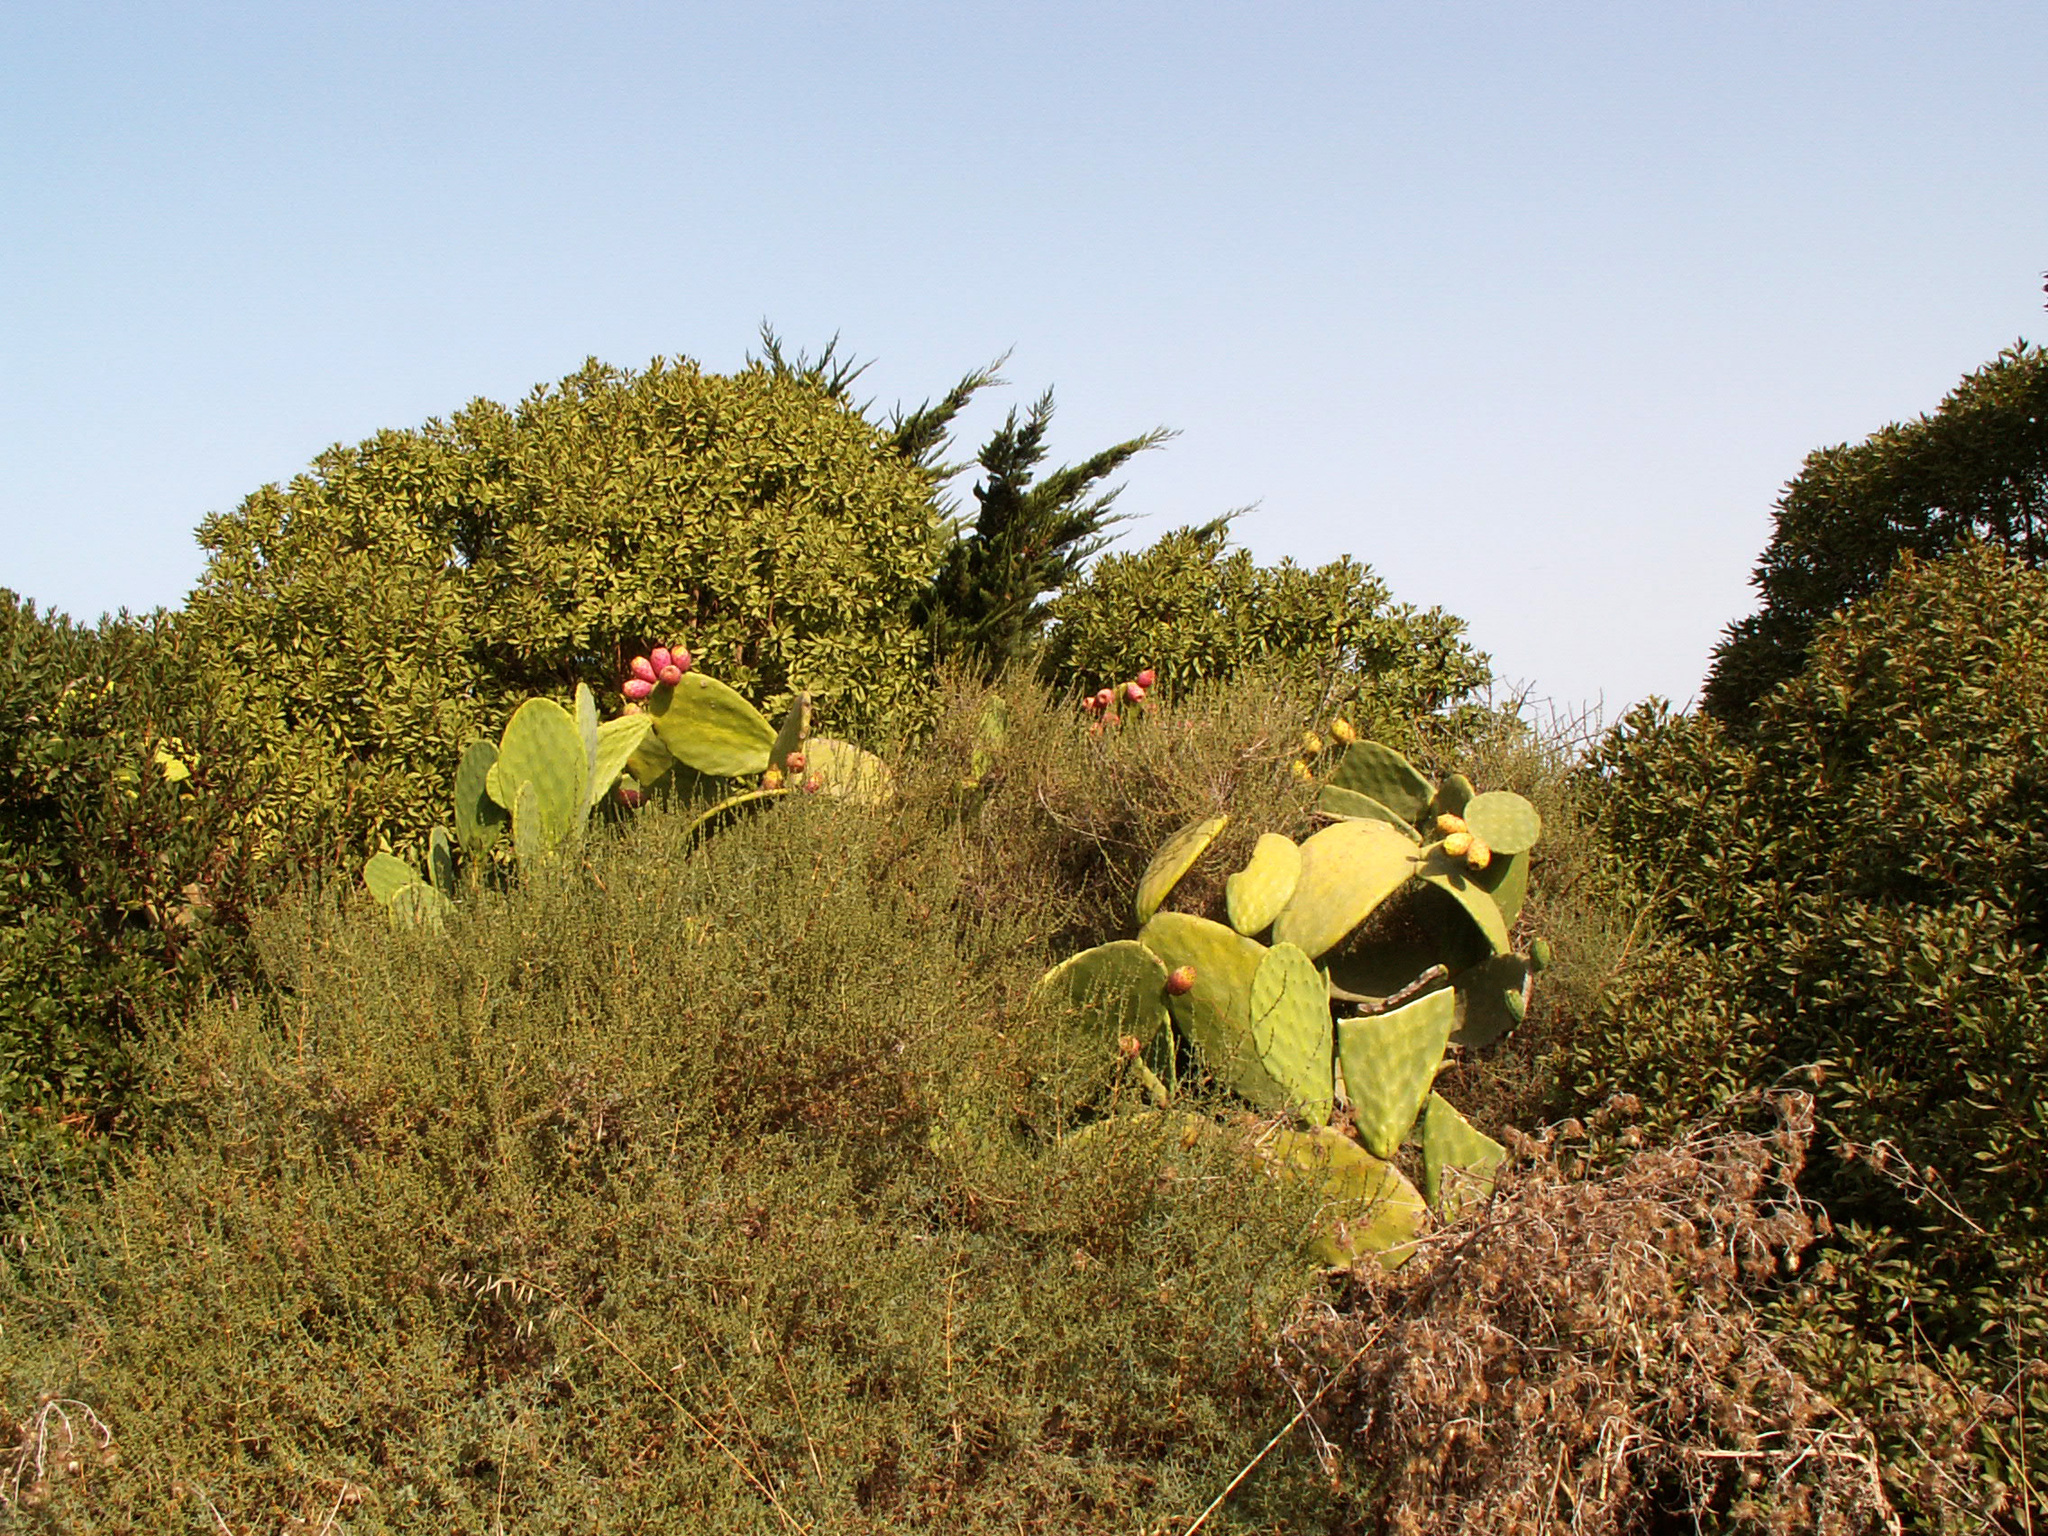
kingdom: Plantae
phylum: Tracheophyta
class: Magnoliopsida
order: Caryophyllales
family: Cactaceae
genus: Opuntia
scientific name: Opuntia ficus-indica
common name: Barbary fig
